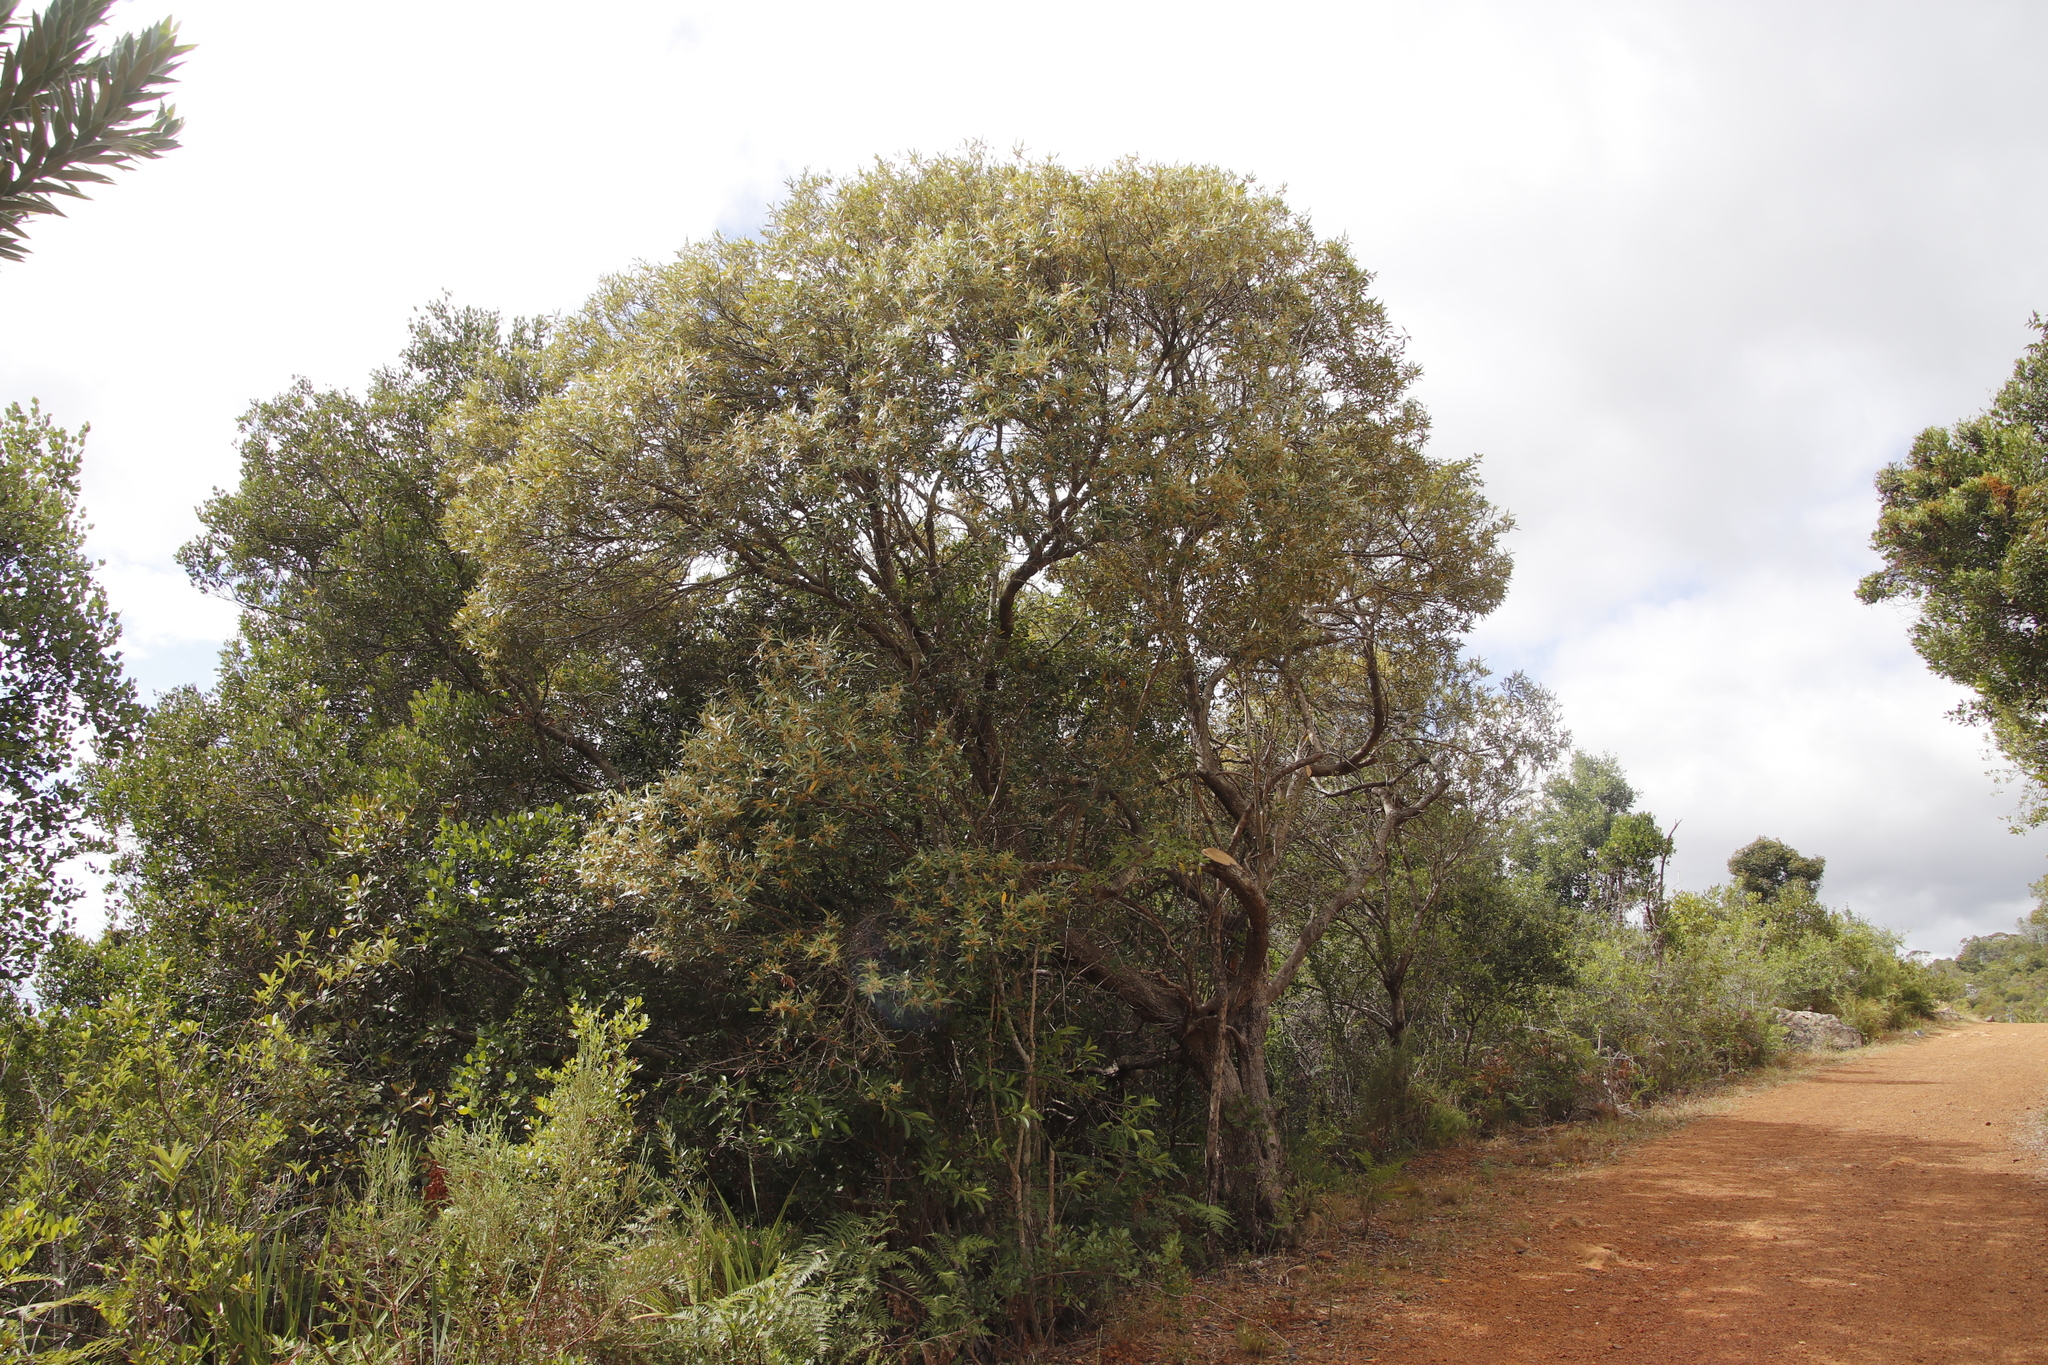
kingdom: Plantae
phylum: Tracheophyta
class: Magnoliopsida
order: Lamiales
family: Oleaceae
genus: Olea
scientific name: Olea europaea
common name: Olive
